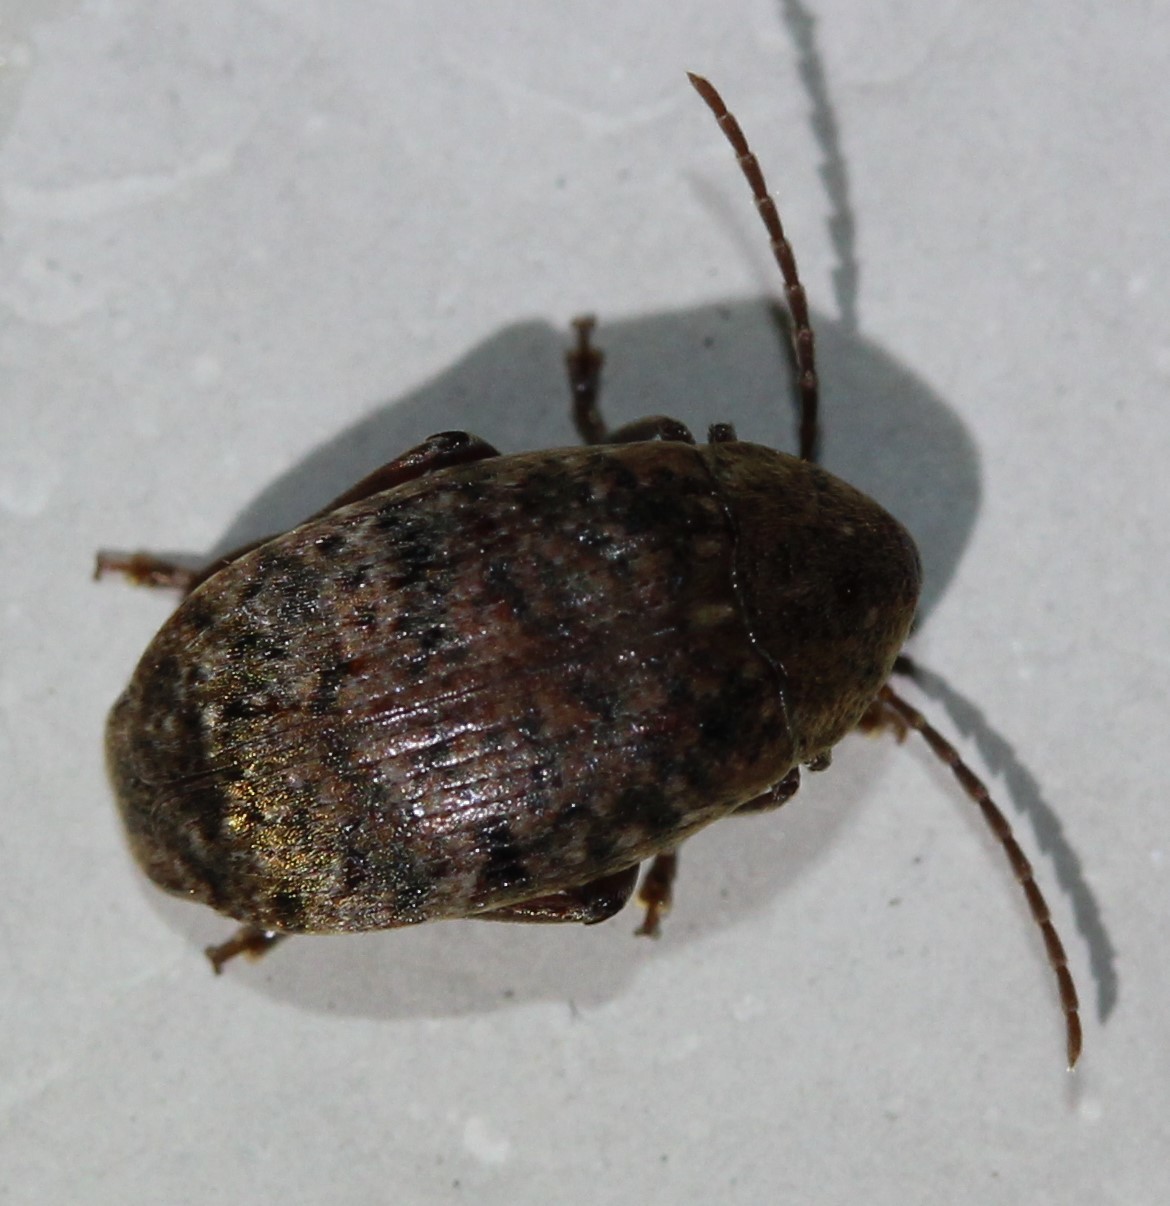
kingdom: Animalia
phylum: Arthropoda
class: Insecta
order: Coleoptera
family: Chrysomelidae
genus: Amblycerus
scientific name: Amblycerus robiniae
